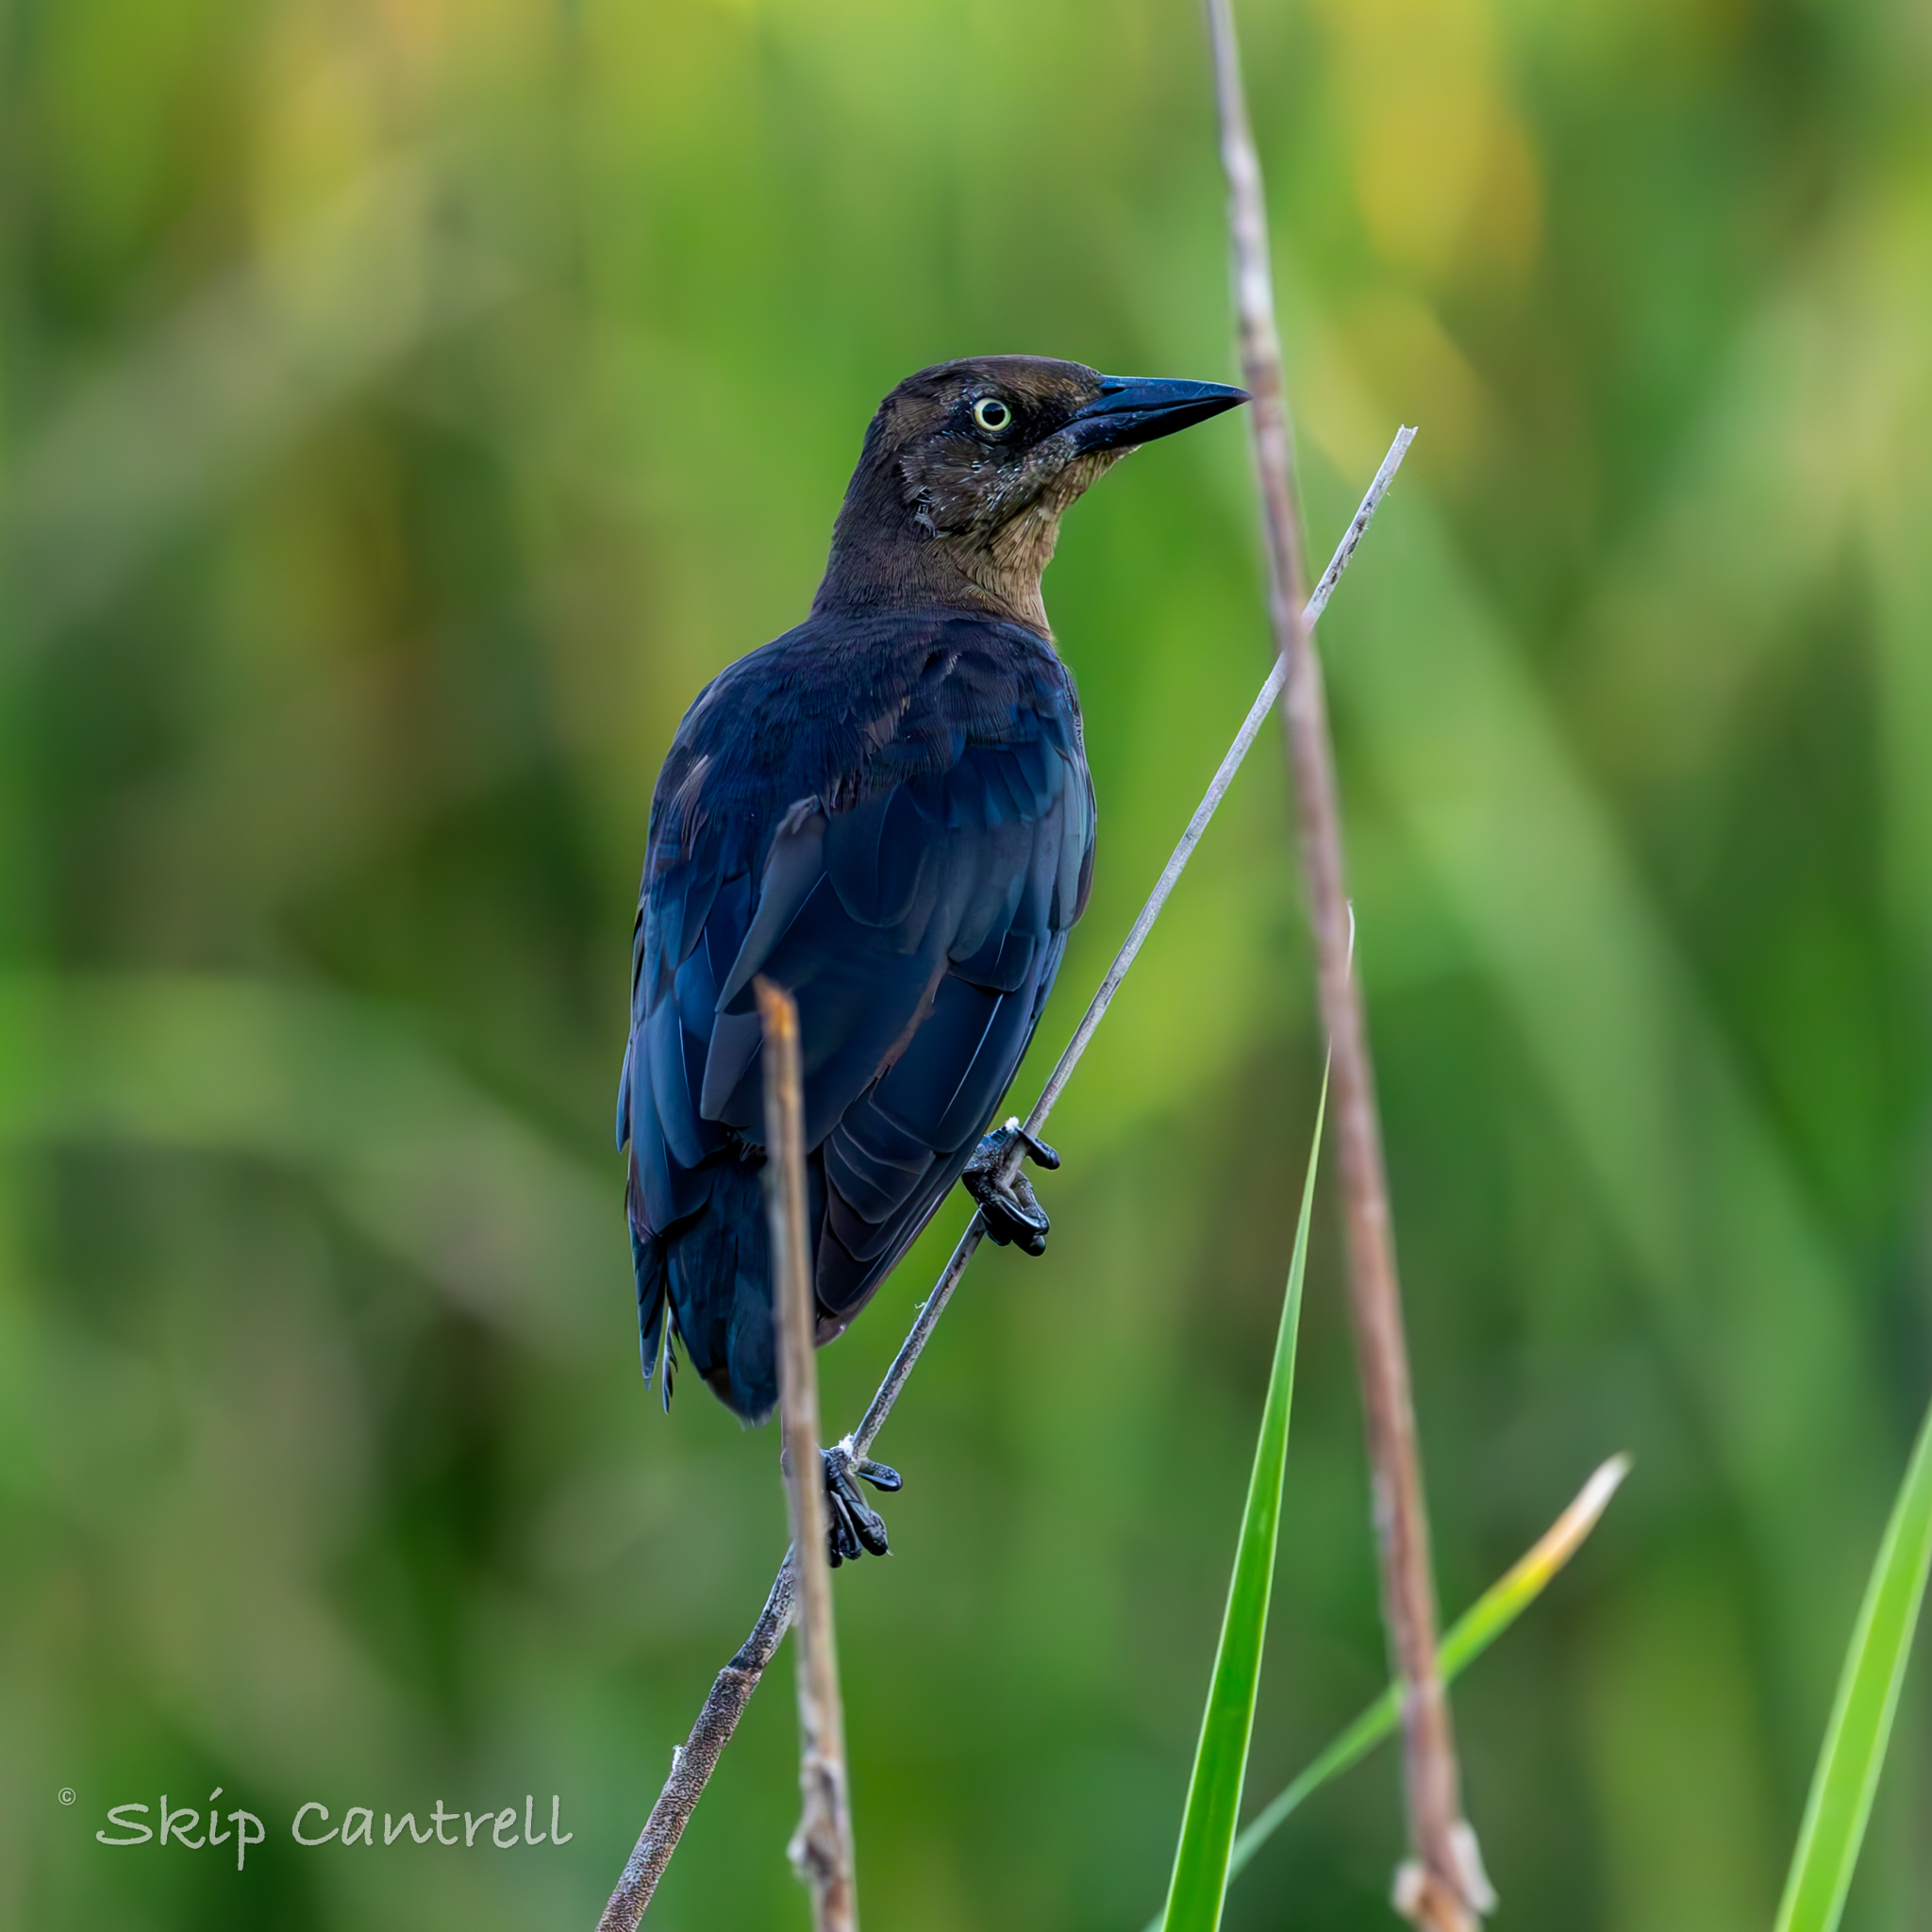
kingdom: Animalia
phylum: Chordata
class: Aves
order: Passeriformes
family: Icteridae
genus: Quiscalus
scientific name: Quiscalus mexicanus
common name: Great-tailed grackle
